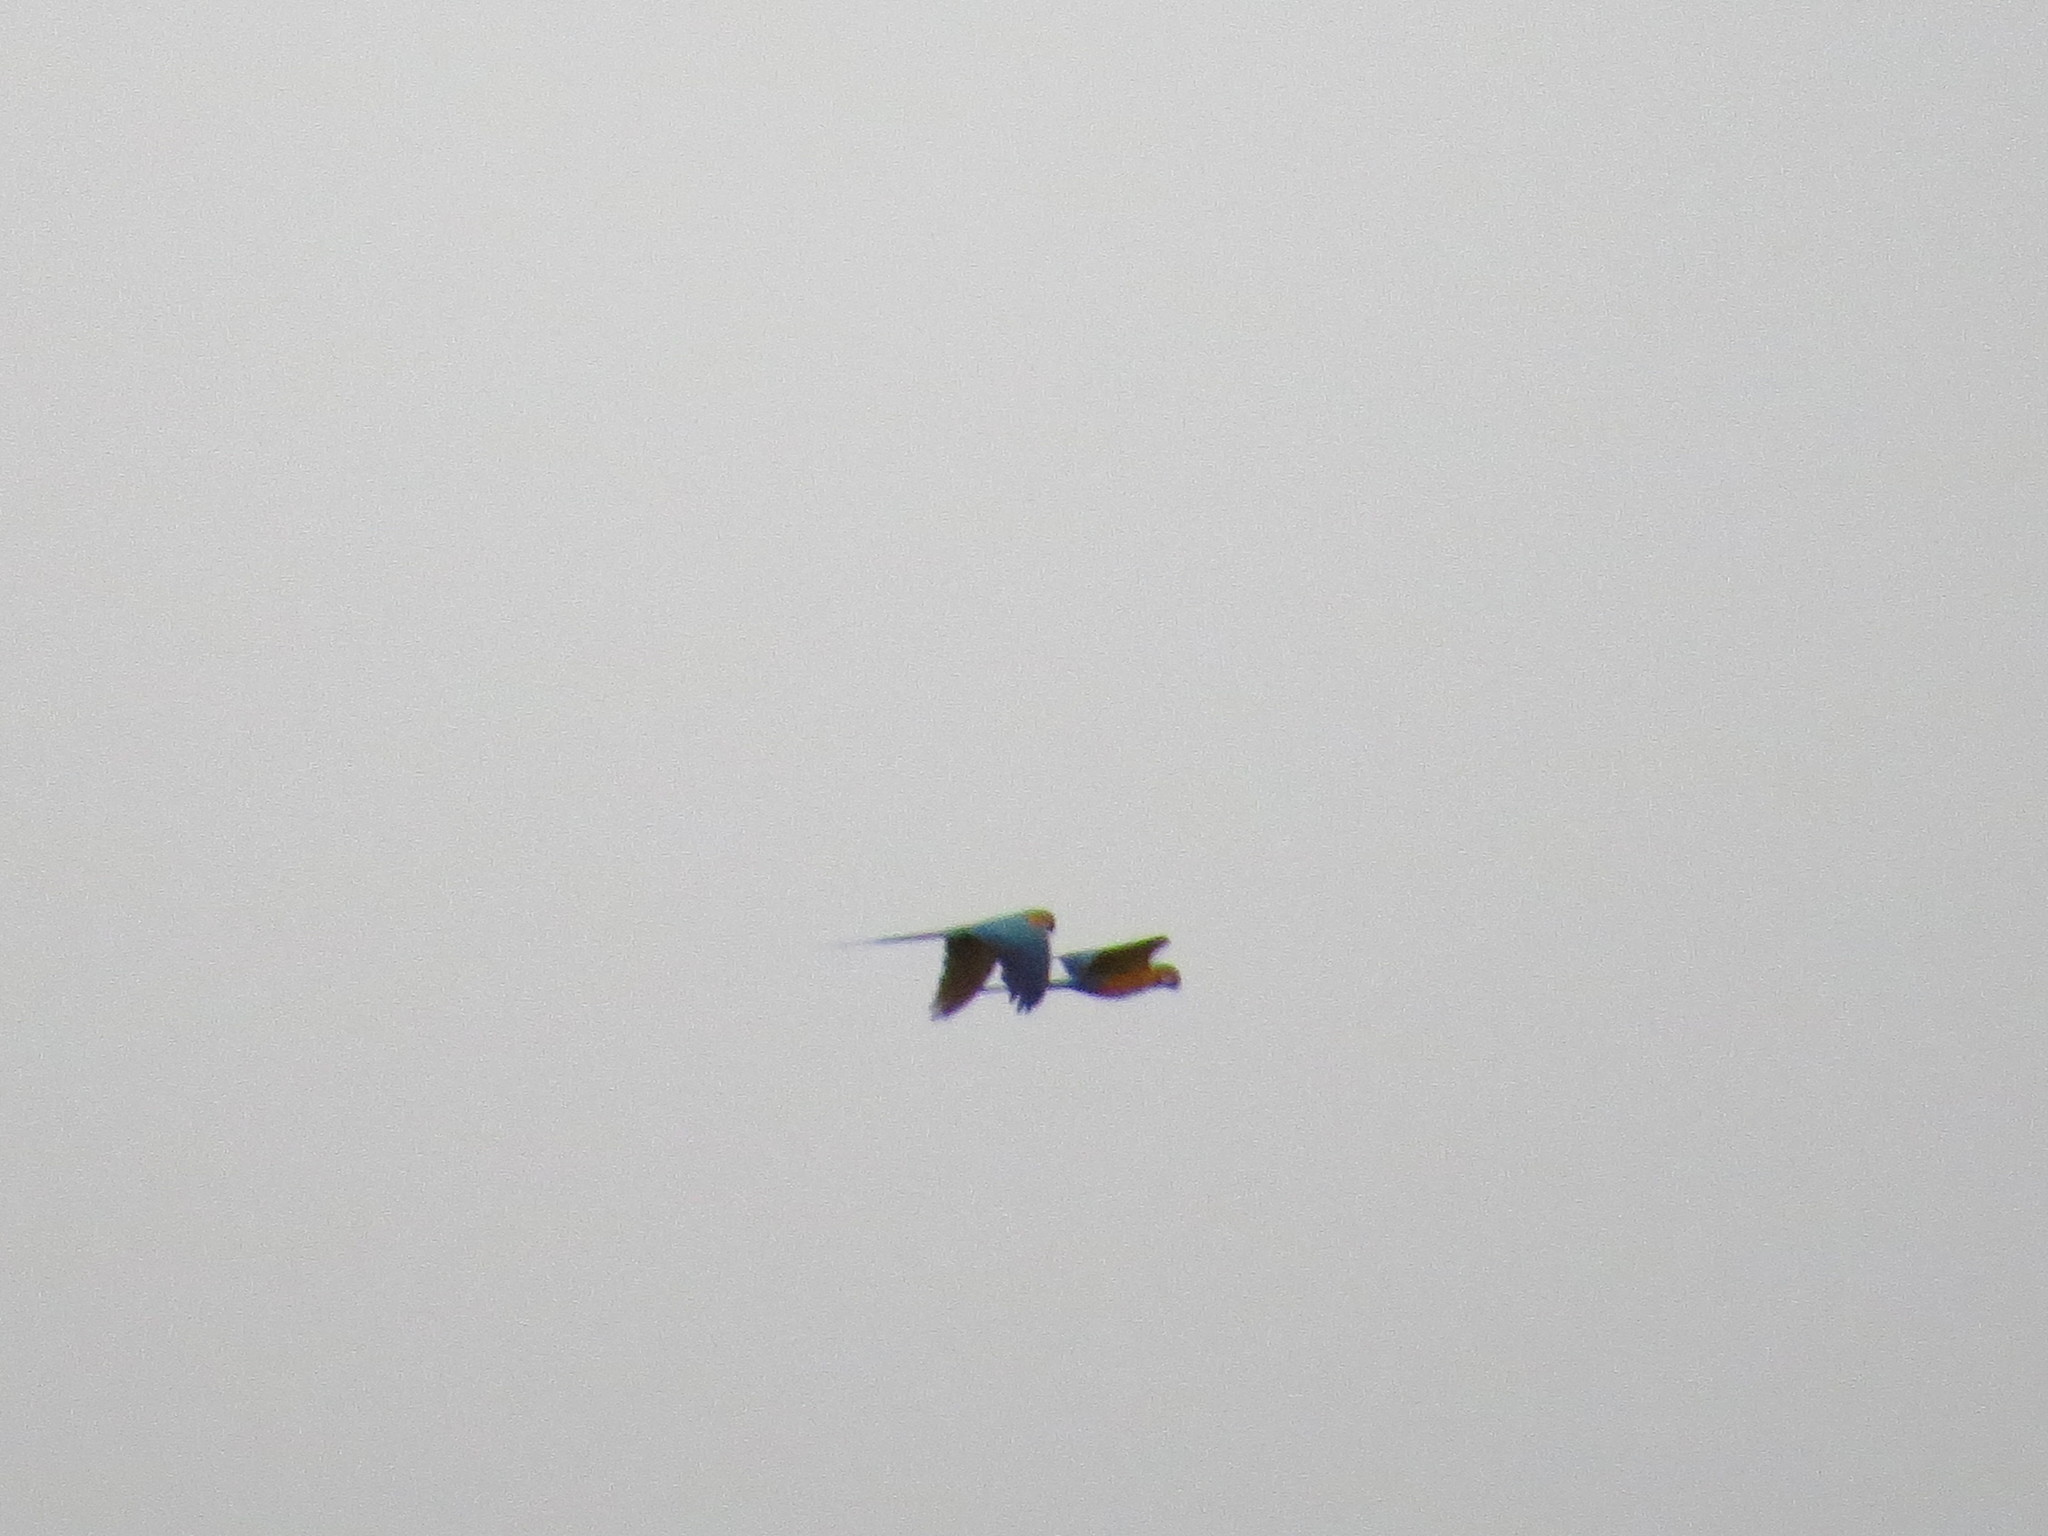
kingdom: Animalia
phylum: Chordata
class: Aves
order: Psittaciformes
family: Psittacidae
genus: Ara
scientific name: Ara ararauna
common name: Blue-and-yellow macaw
